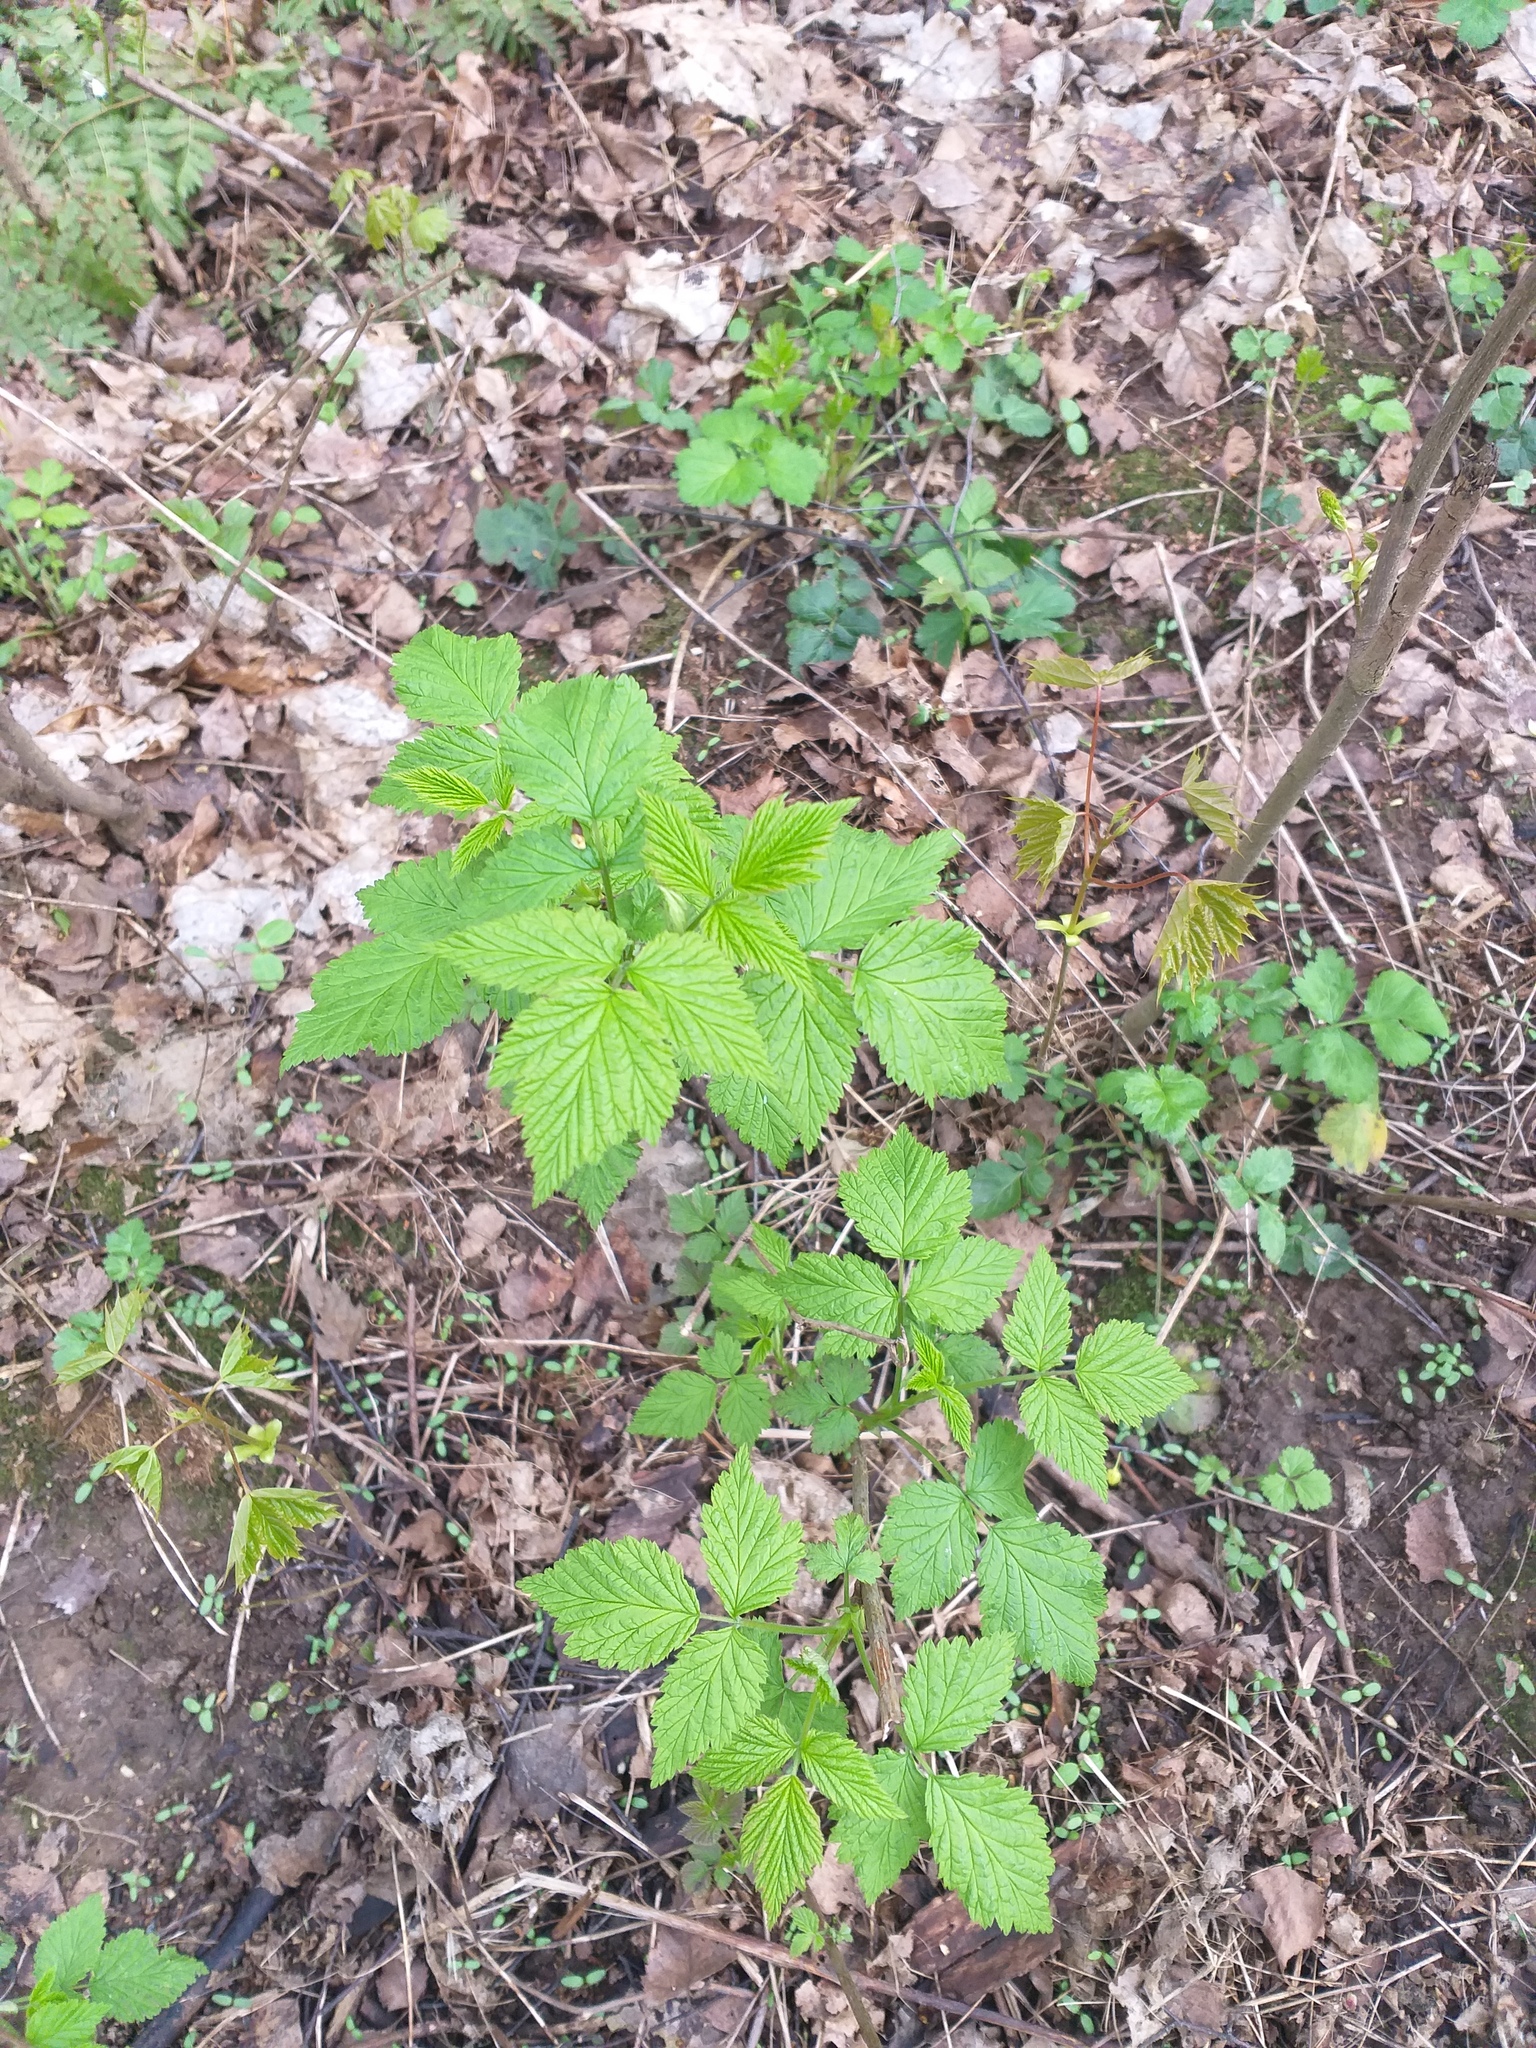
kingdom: Plantae
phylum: Tracheophyta
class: Magnoliopsida
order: Rosales
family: Rosaceae
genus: Rubus
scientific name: Rubus idaeus
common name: Raspberry
